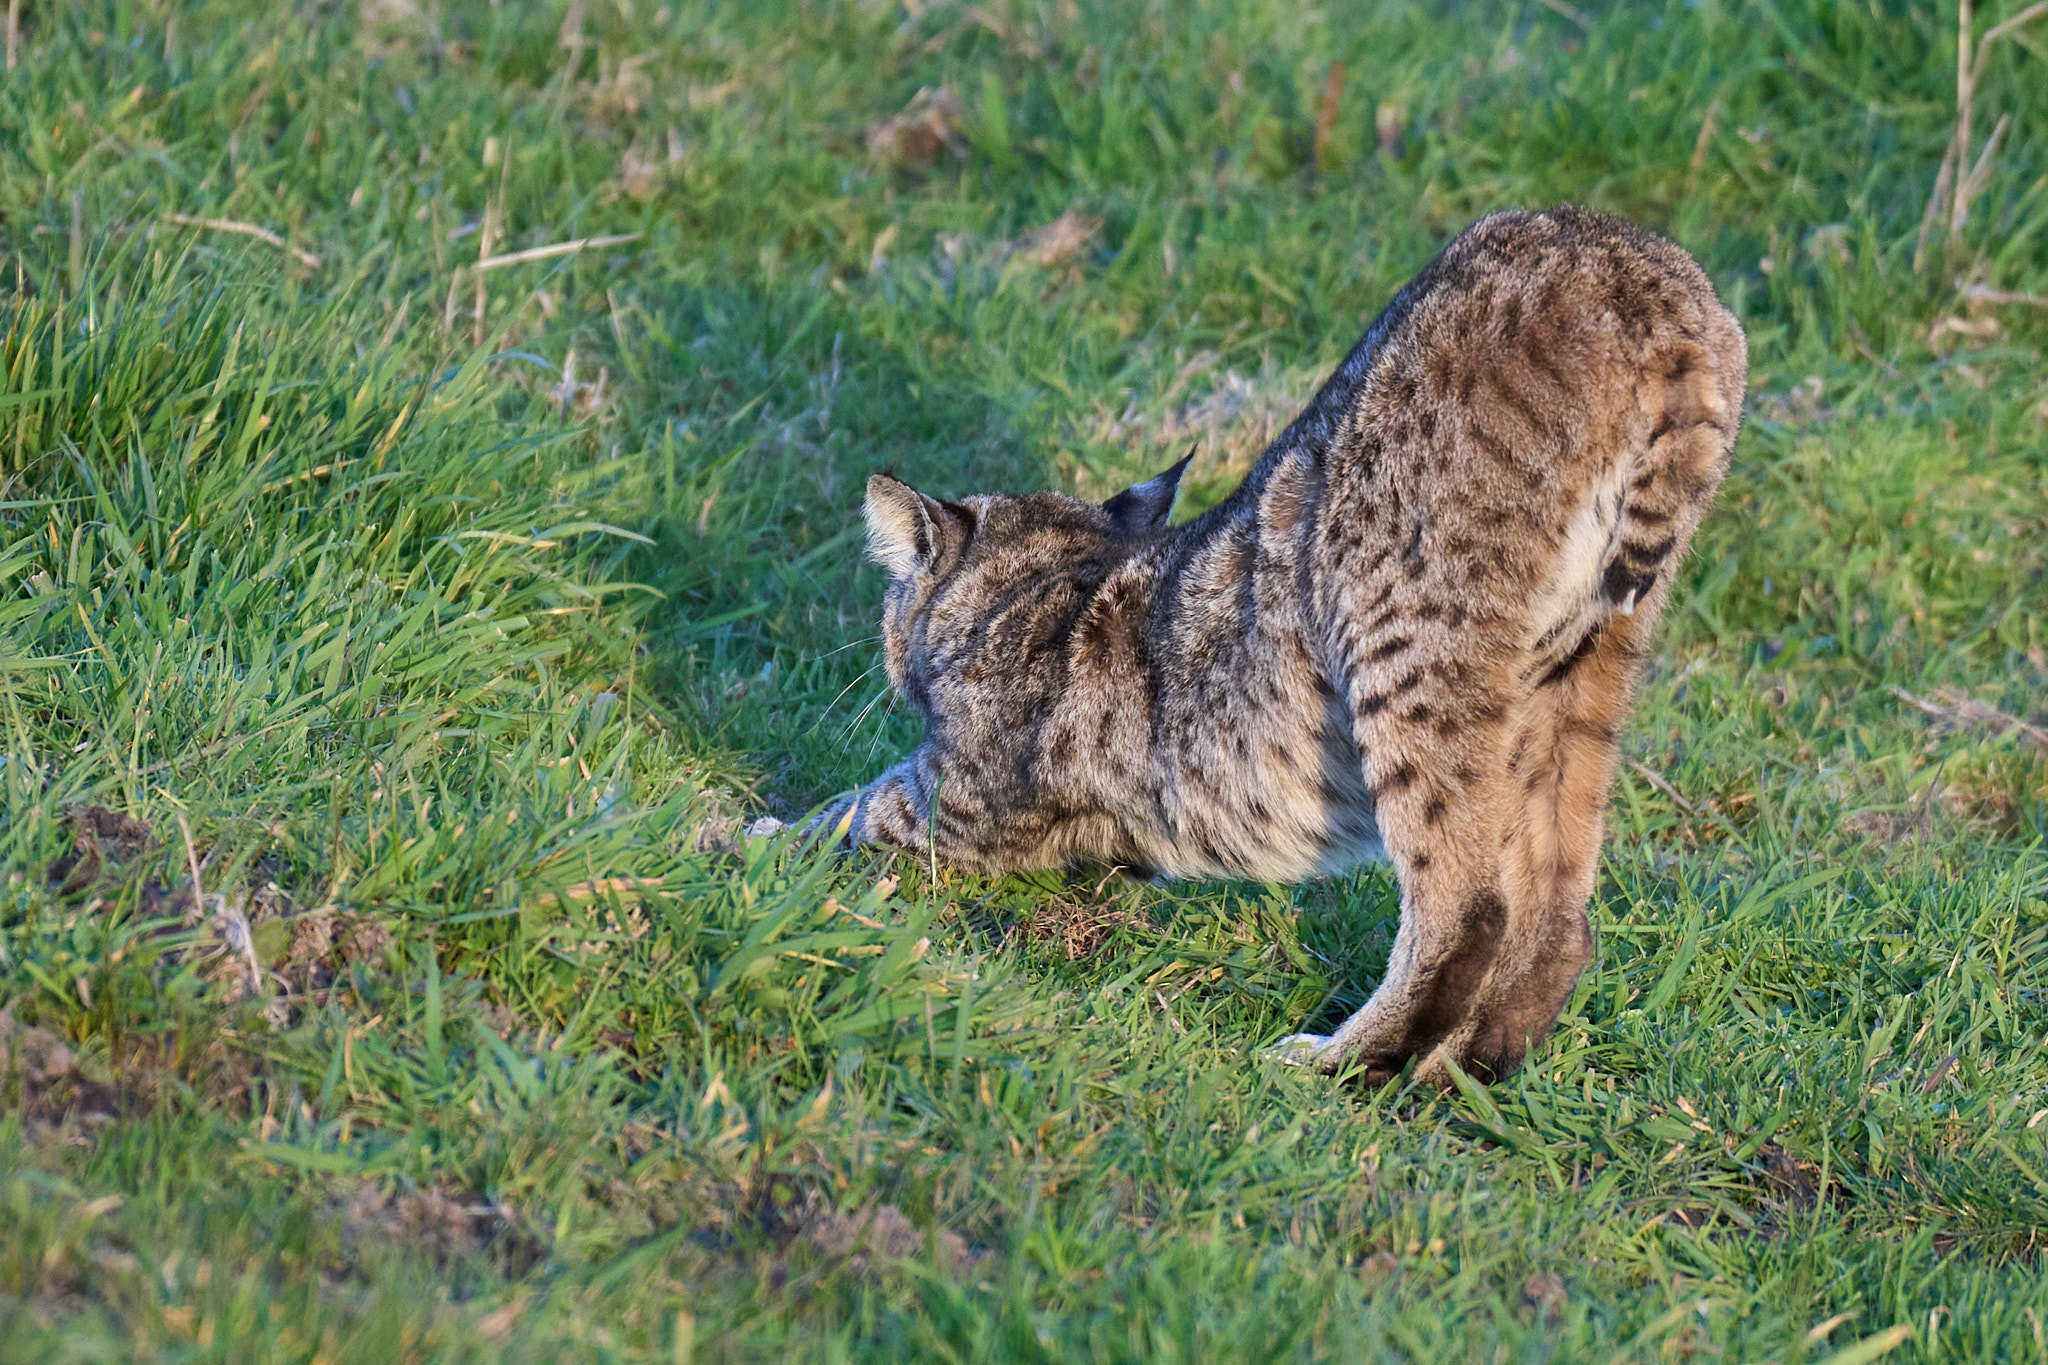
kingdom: Animalia
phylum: Chordata
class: Mammalia
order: Carnivora
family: Felidae
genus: Lynx
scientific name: Lynx rufus
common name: Bobcat
